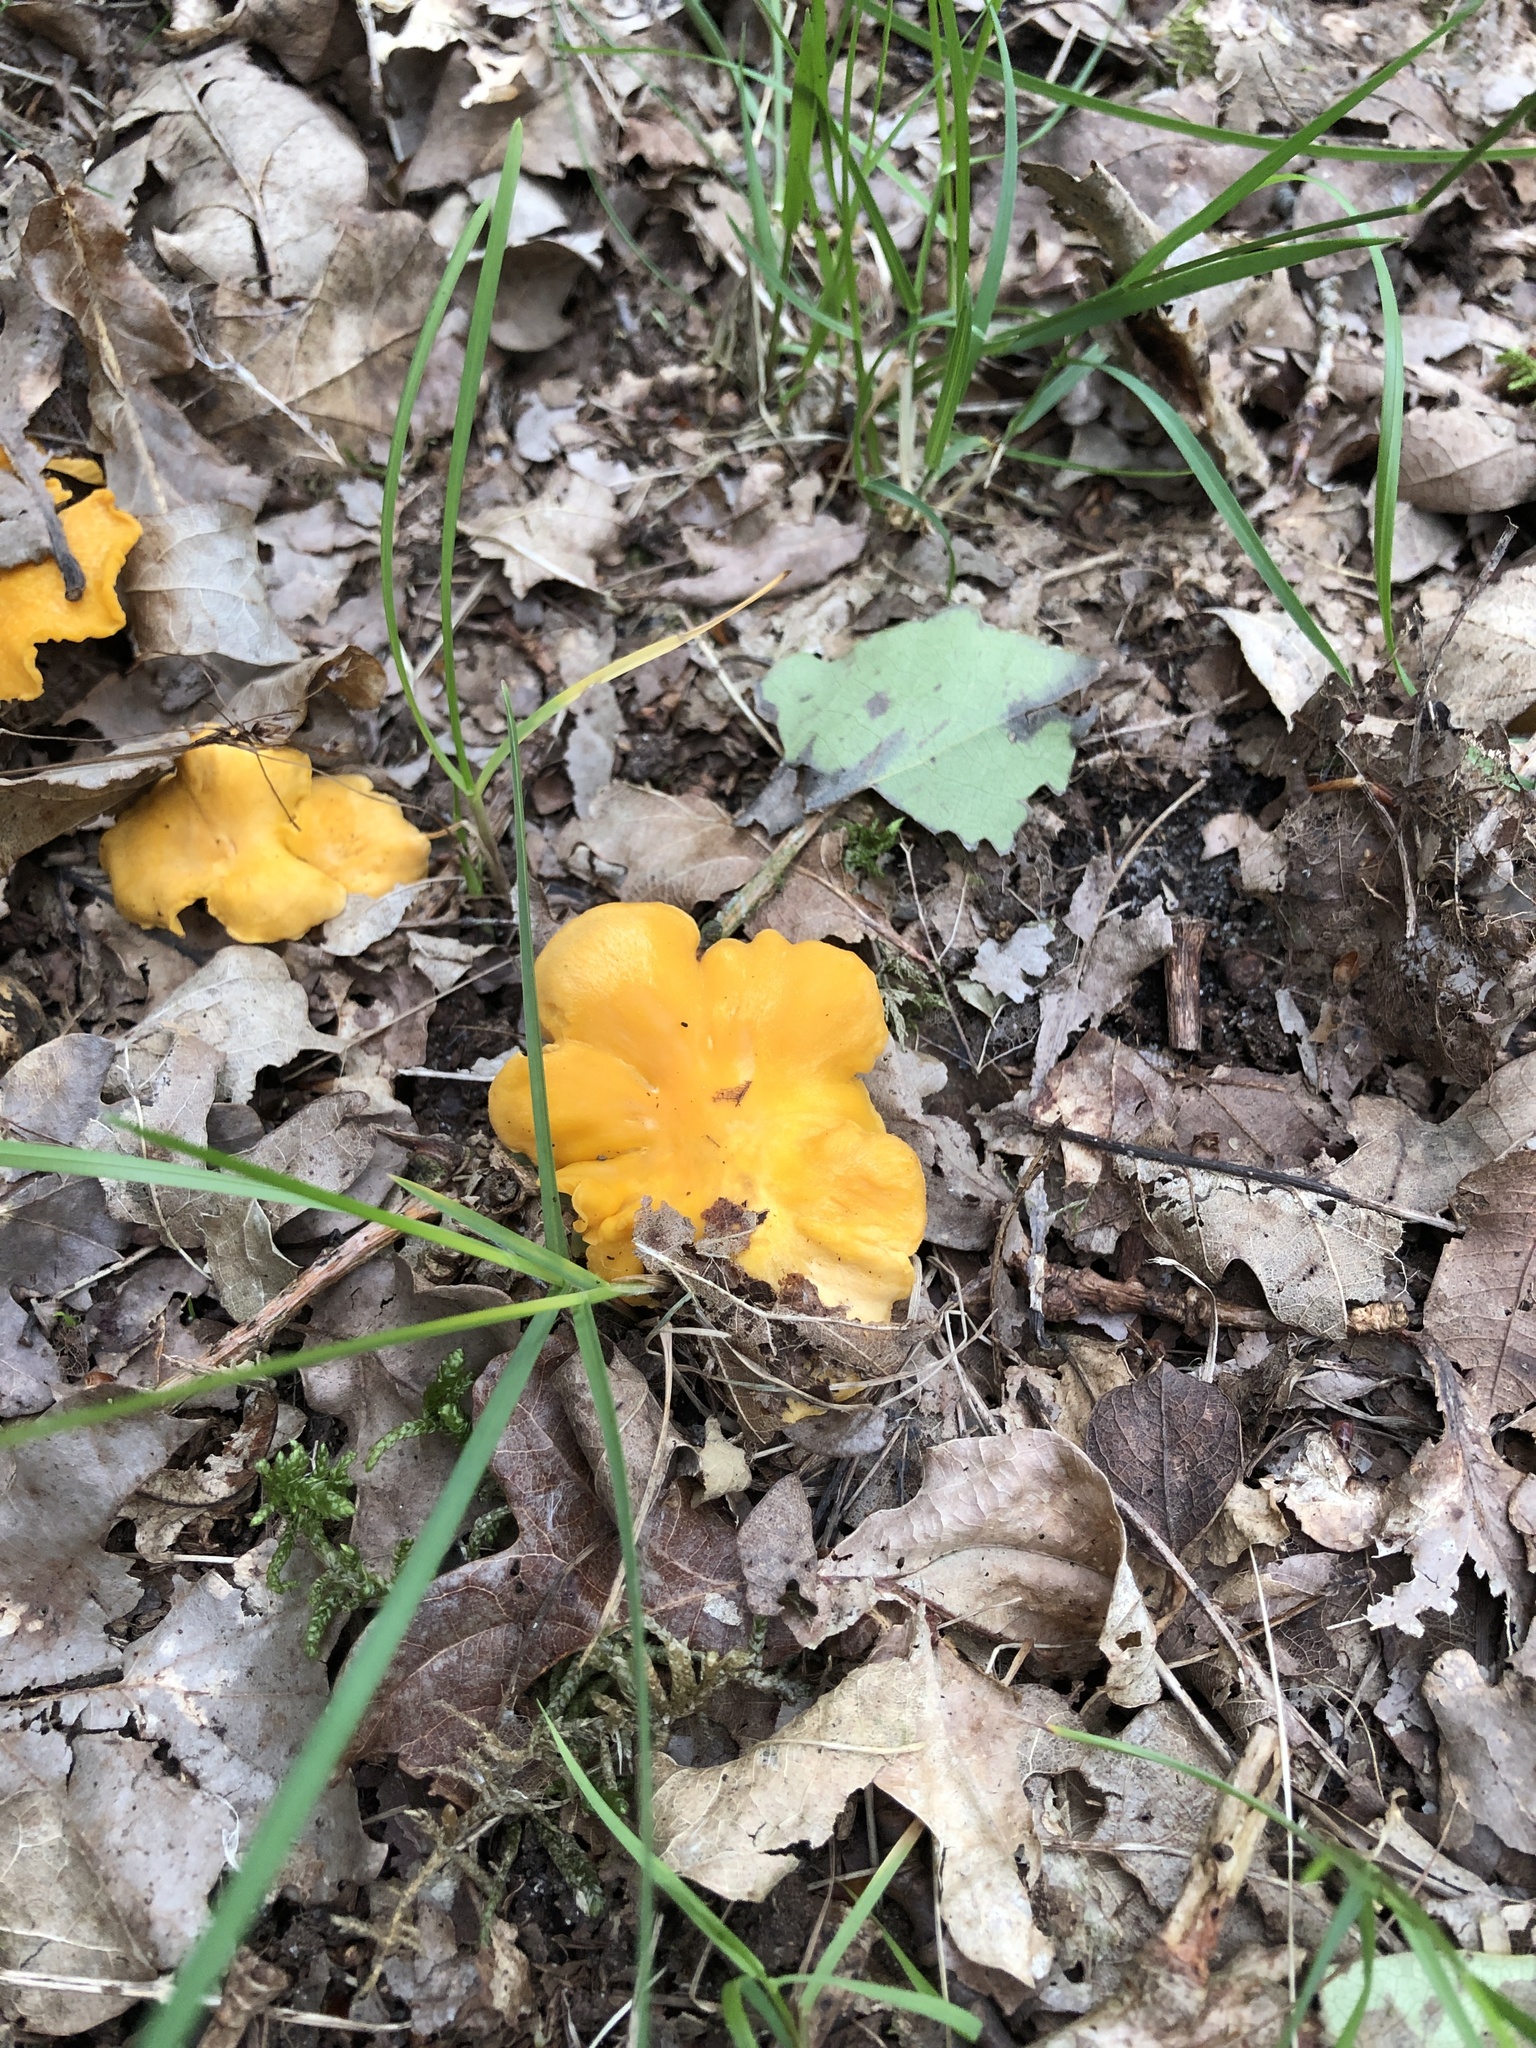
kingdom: Fungi
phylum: Basidiomycota
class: Agaricomycetes
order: Cantharellales
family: Hydnaceae
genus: Cantharellus
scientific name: Cantharellus cibarius
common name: Chanterelle
